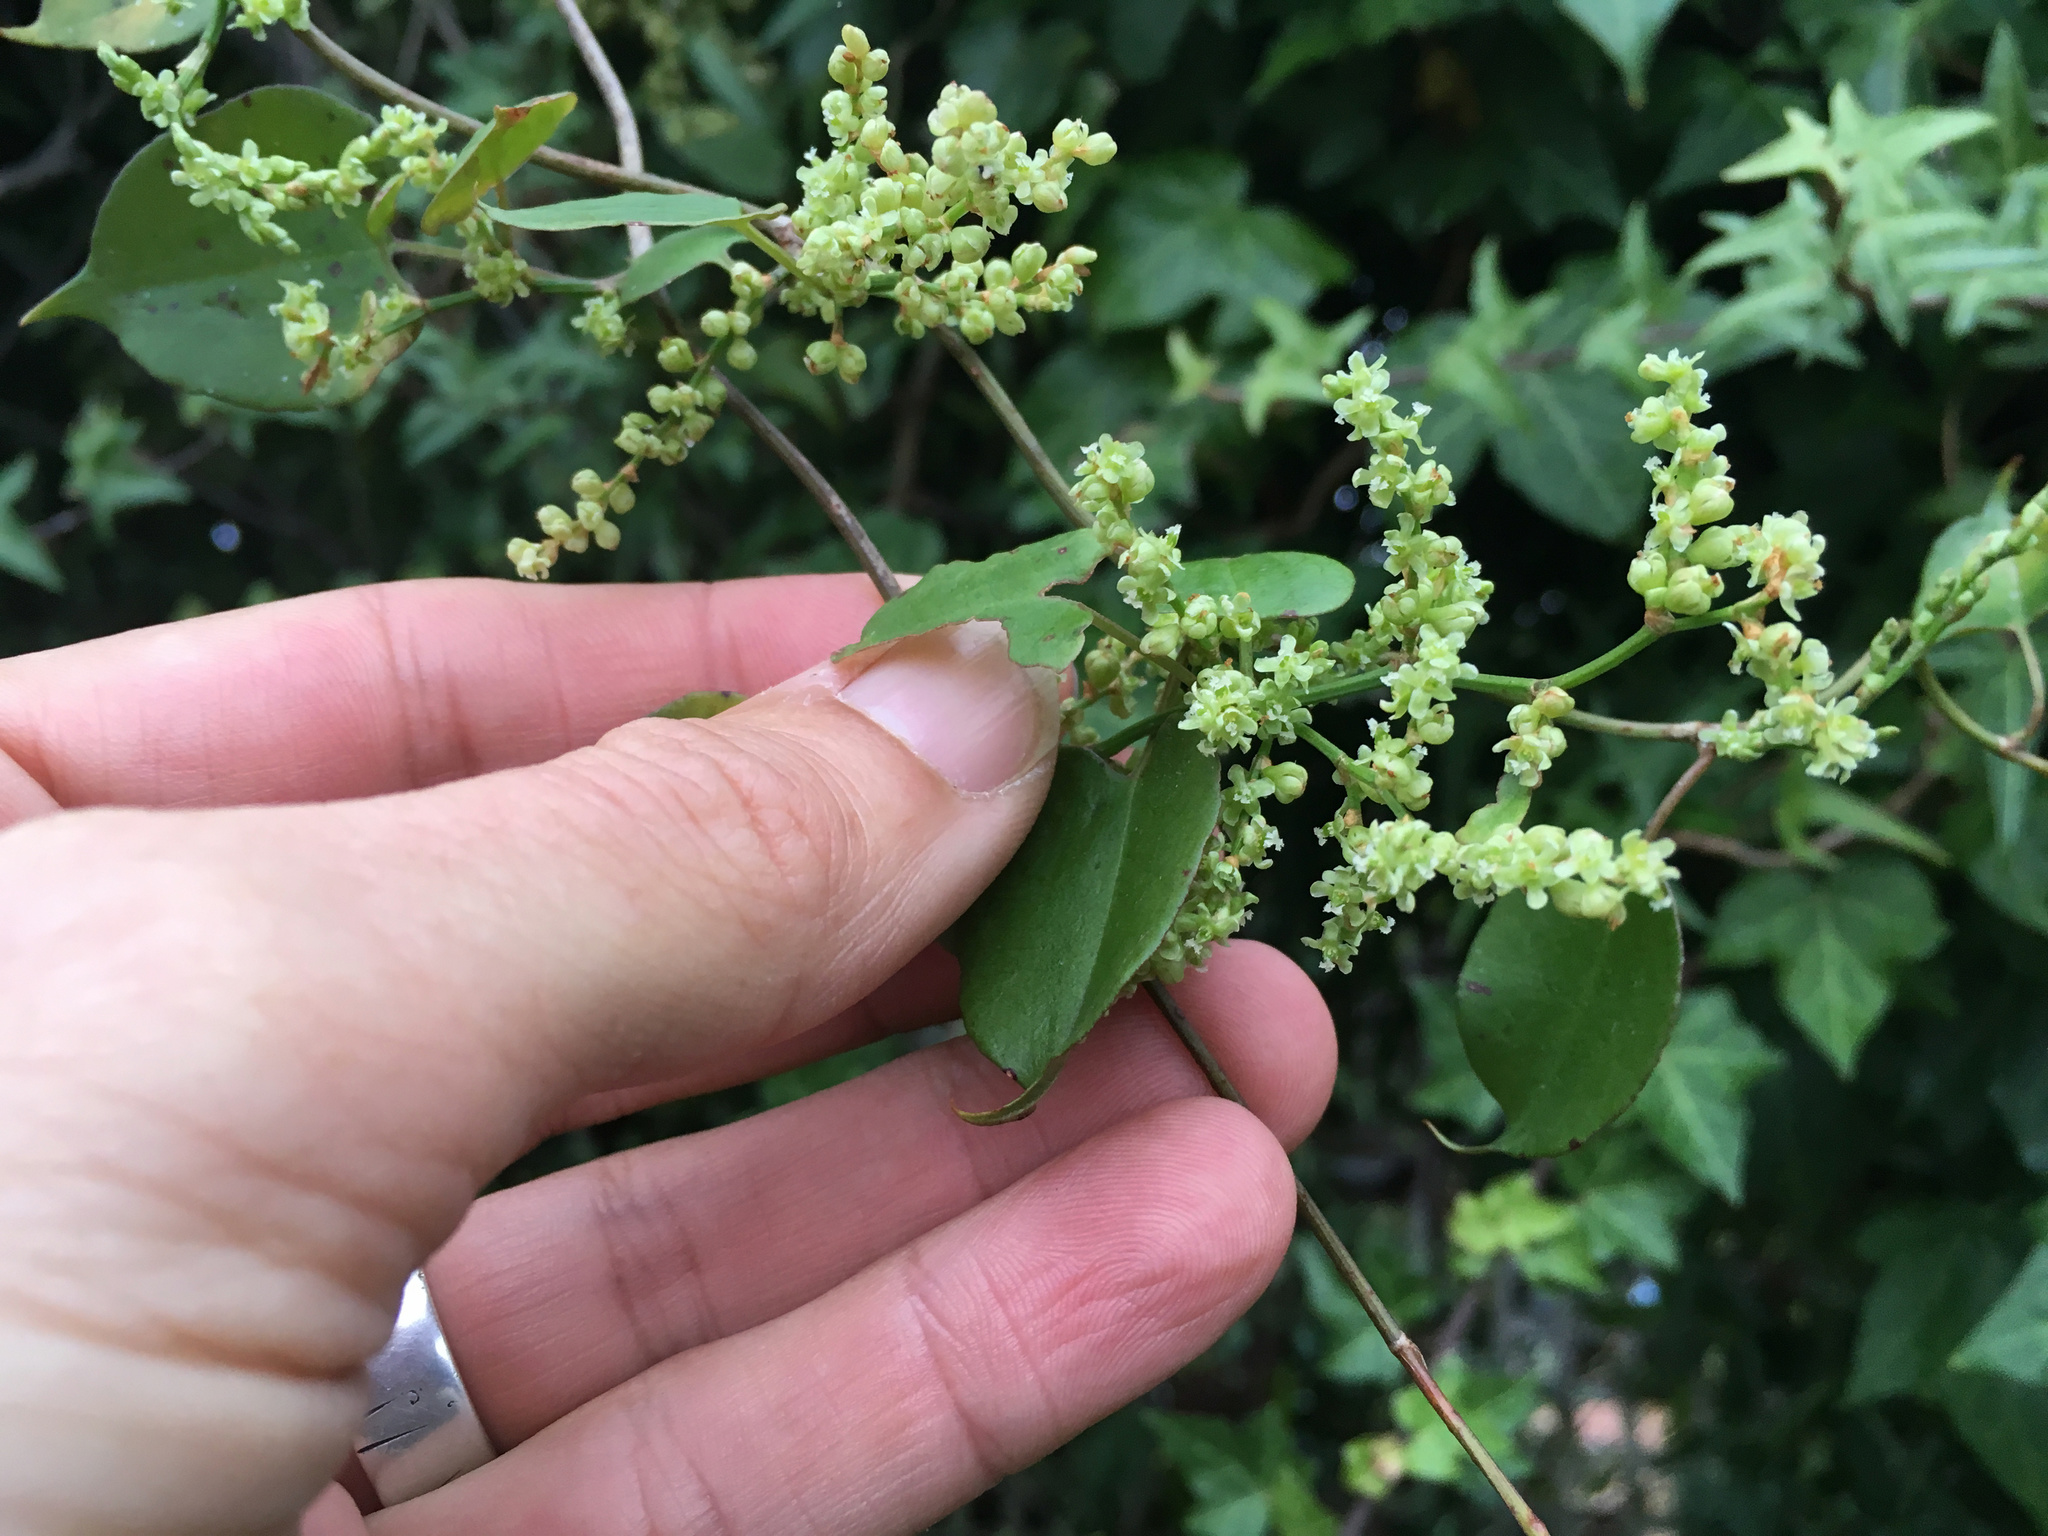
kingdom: Plantae
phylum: Tracheophyta
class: Magnoliopsida
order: Caryophyllales
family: Polygonaceae
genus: Muehlenbeckia
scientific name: Muehlenbeckia australis
